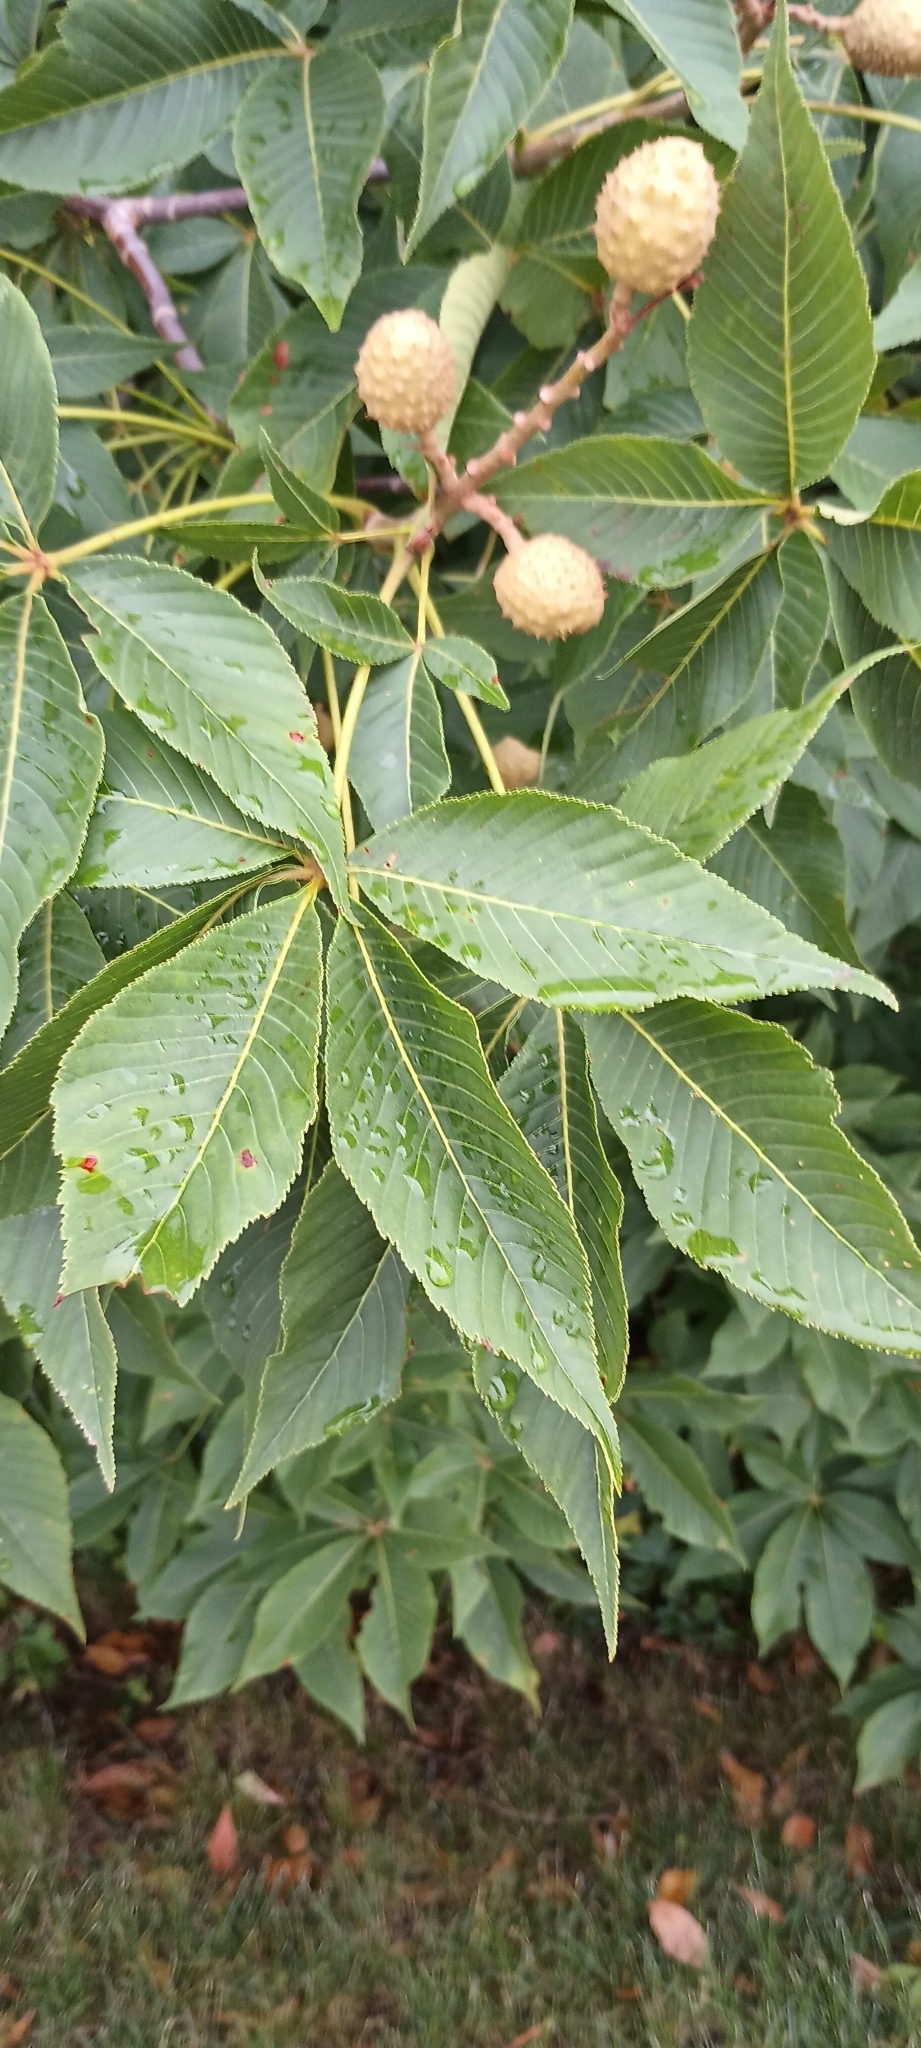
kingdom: Plantae
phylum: Tracheophyta
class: Magnoliopsida
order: Sapindales
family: Sapindaceae
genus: Aesculus
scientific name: Aesculus glabra
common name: Ohio buckeye
